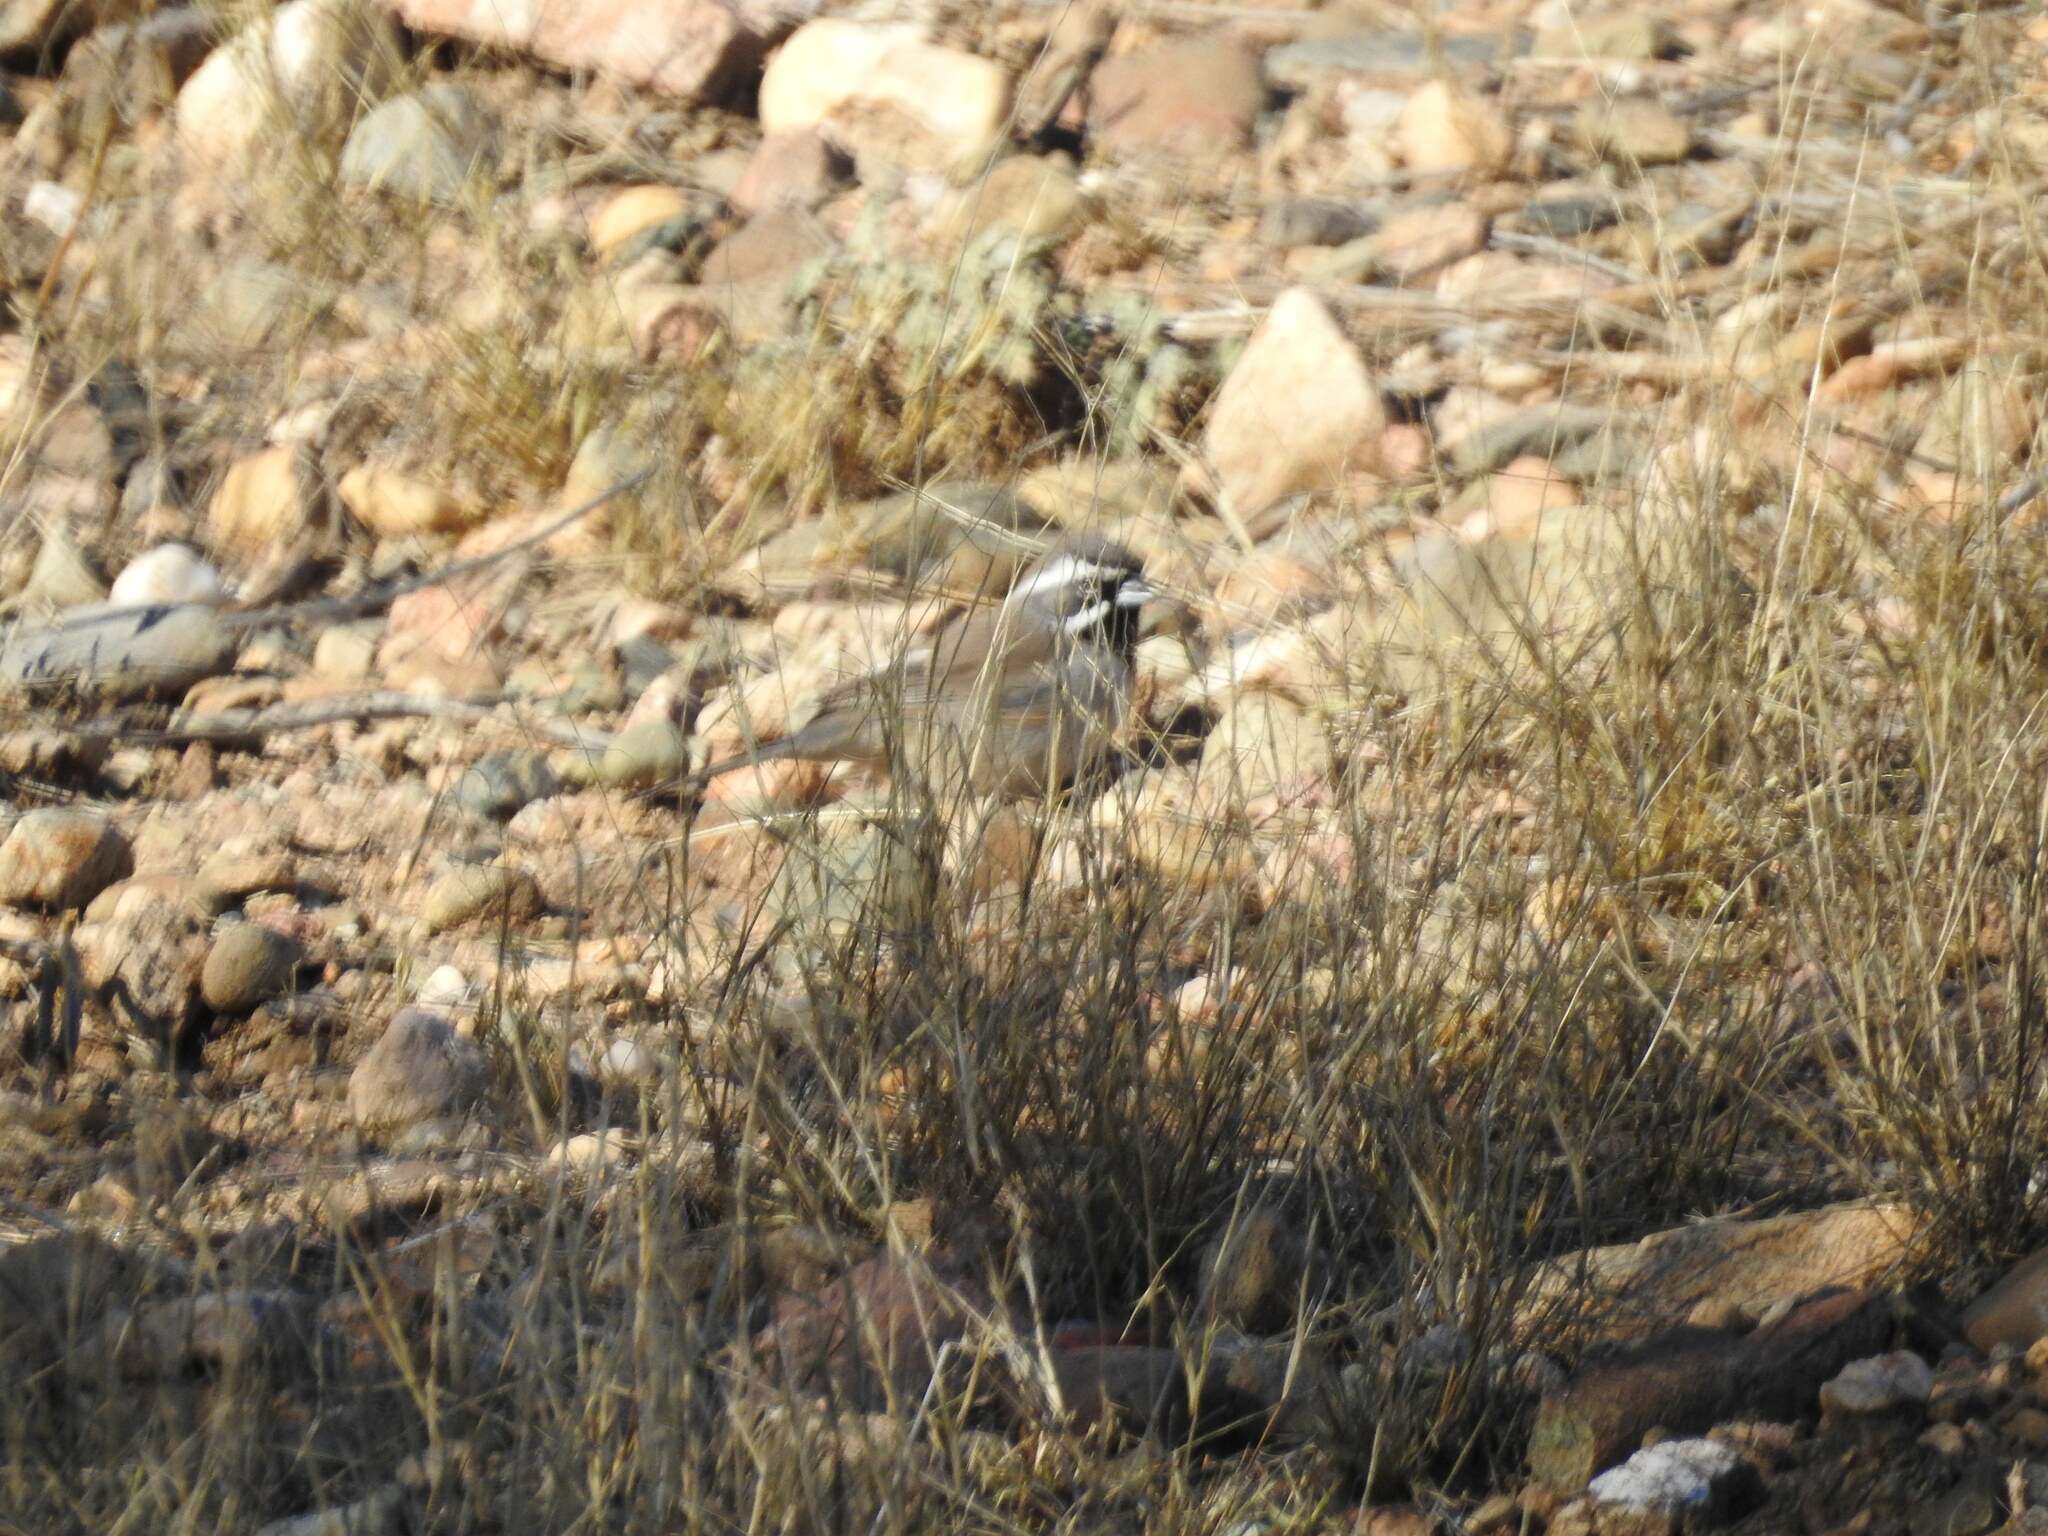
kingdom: Animalia
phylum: Chordata
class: Aves
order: Passeriformes
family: Passerellidae
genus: Amphispiza
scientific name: Amphispiza bilineata
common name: Black-throated sparrow
